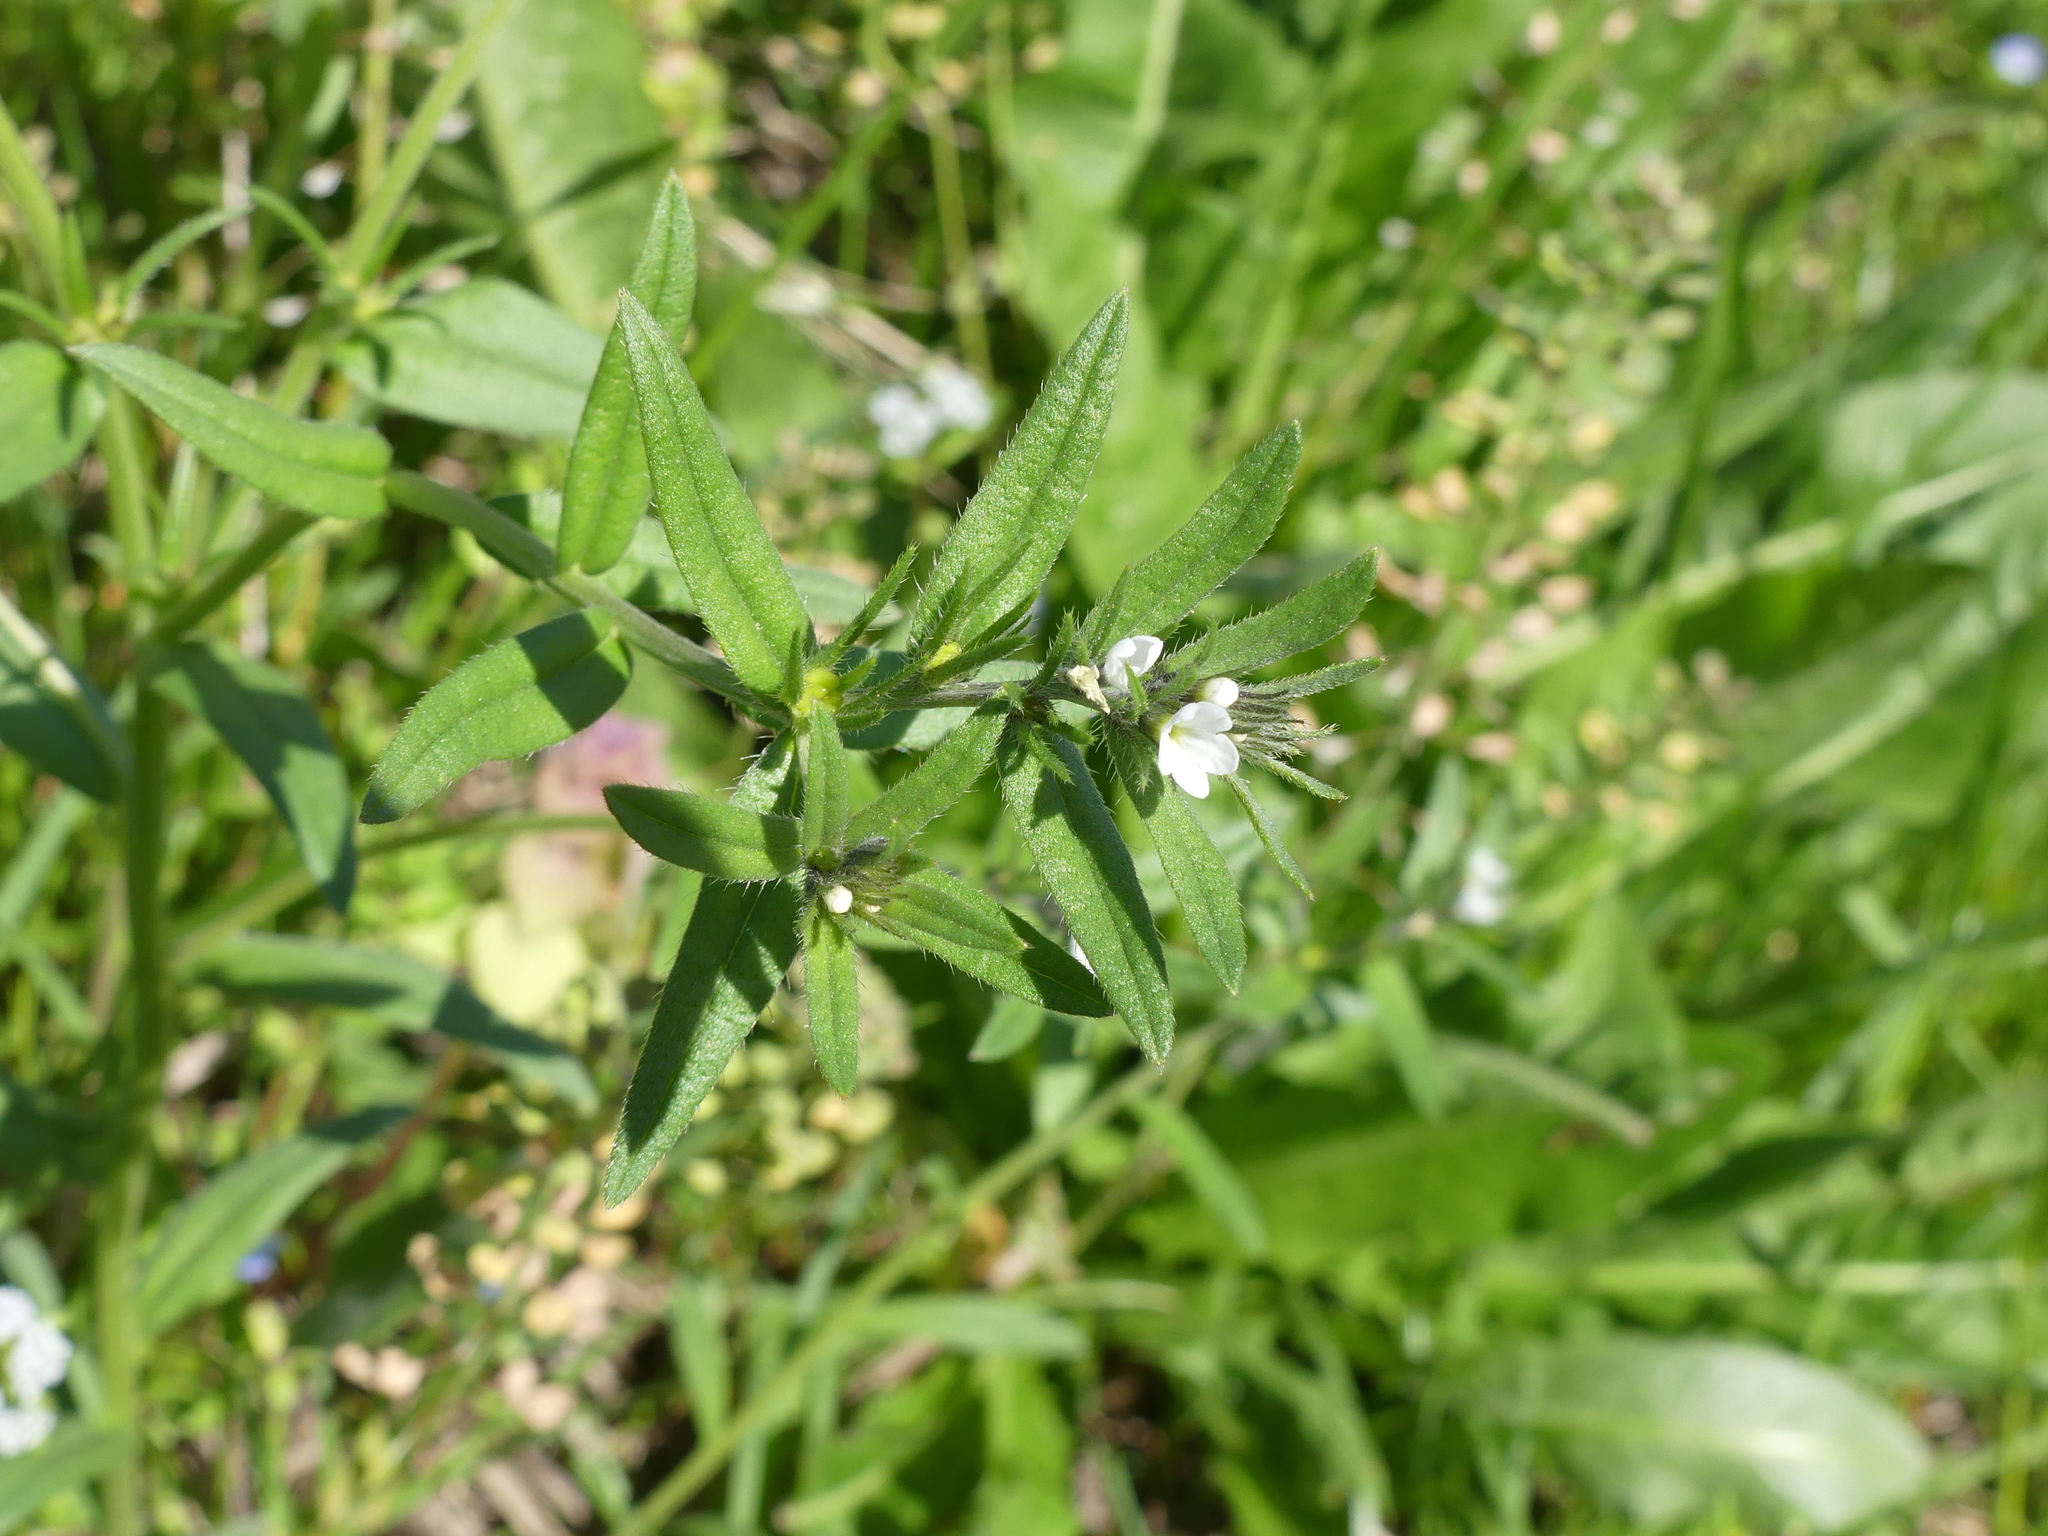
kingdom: Plantae
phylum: Tracheophyta
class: Magnoliopsida
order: Boraginales
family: Boraginaceae
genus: Buglossoides
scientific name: Buglossoides arvensis
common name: Corn gromwell
